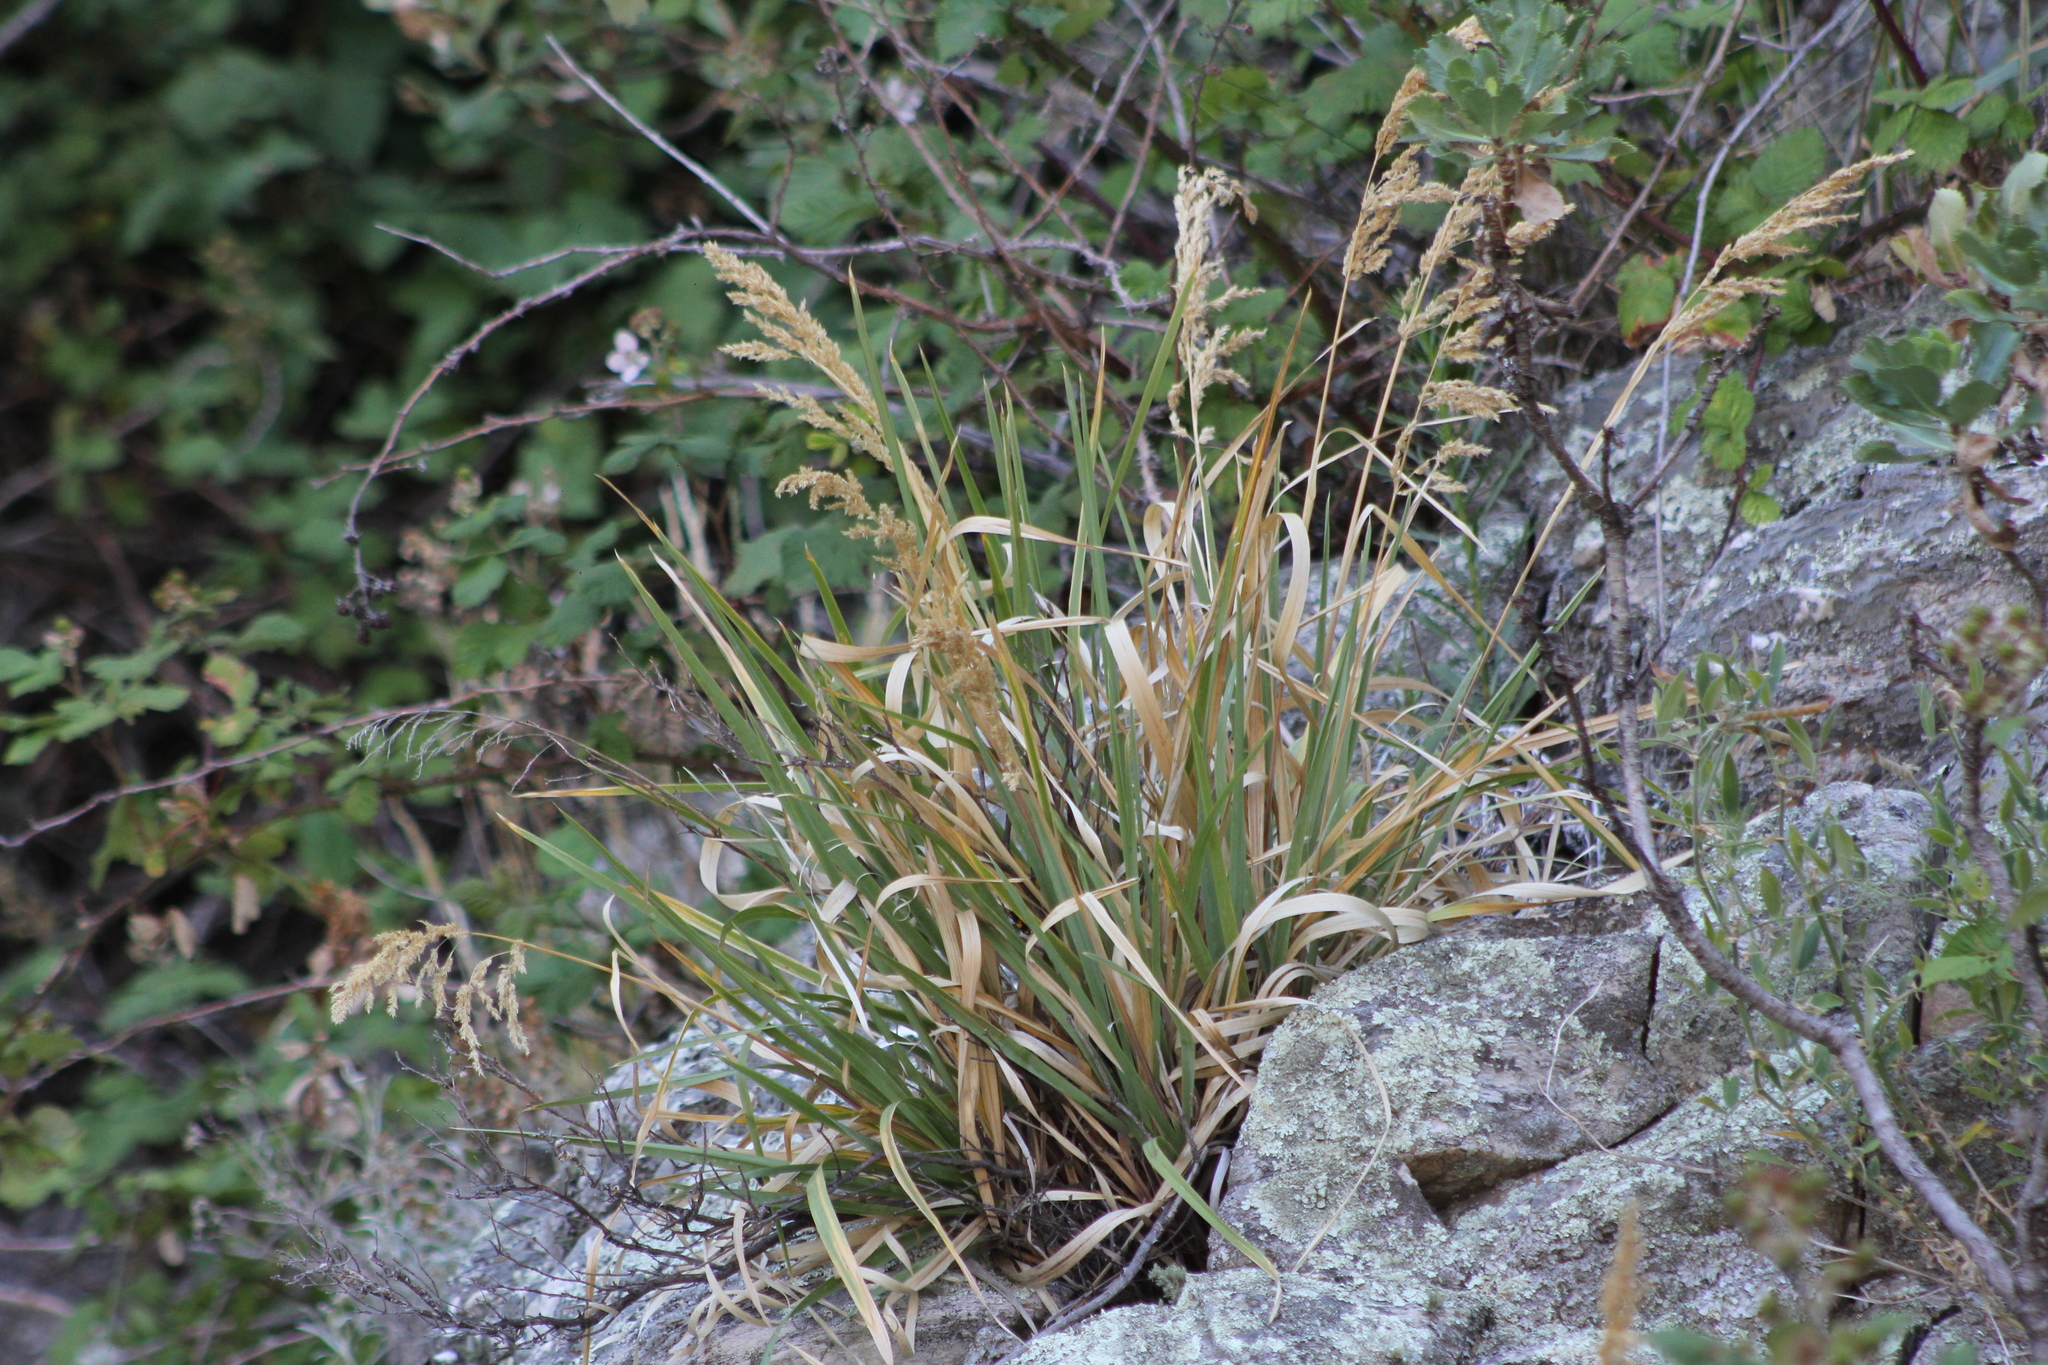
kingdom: Plantae
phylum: Tracheophyta
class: Liliopsida
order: Poales
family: Poaceae
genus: Poa
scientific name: Poa iridifolia
